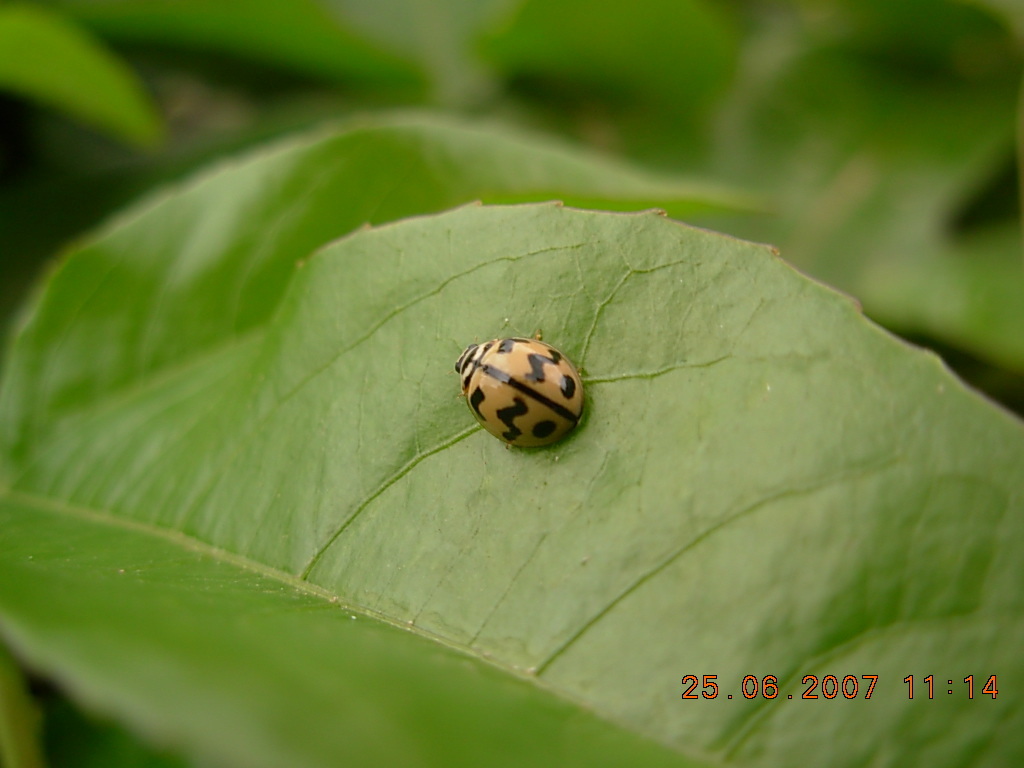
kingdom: Animalia
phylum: Arthropoda
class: Insecta
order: Coleoptera
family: Coccinellidae
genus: Cheilomenes
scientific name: Cheilomenes sexmaculata
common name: Ladybird beetle
